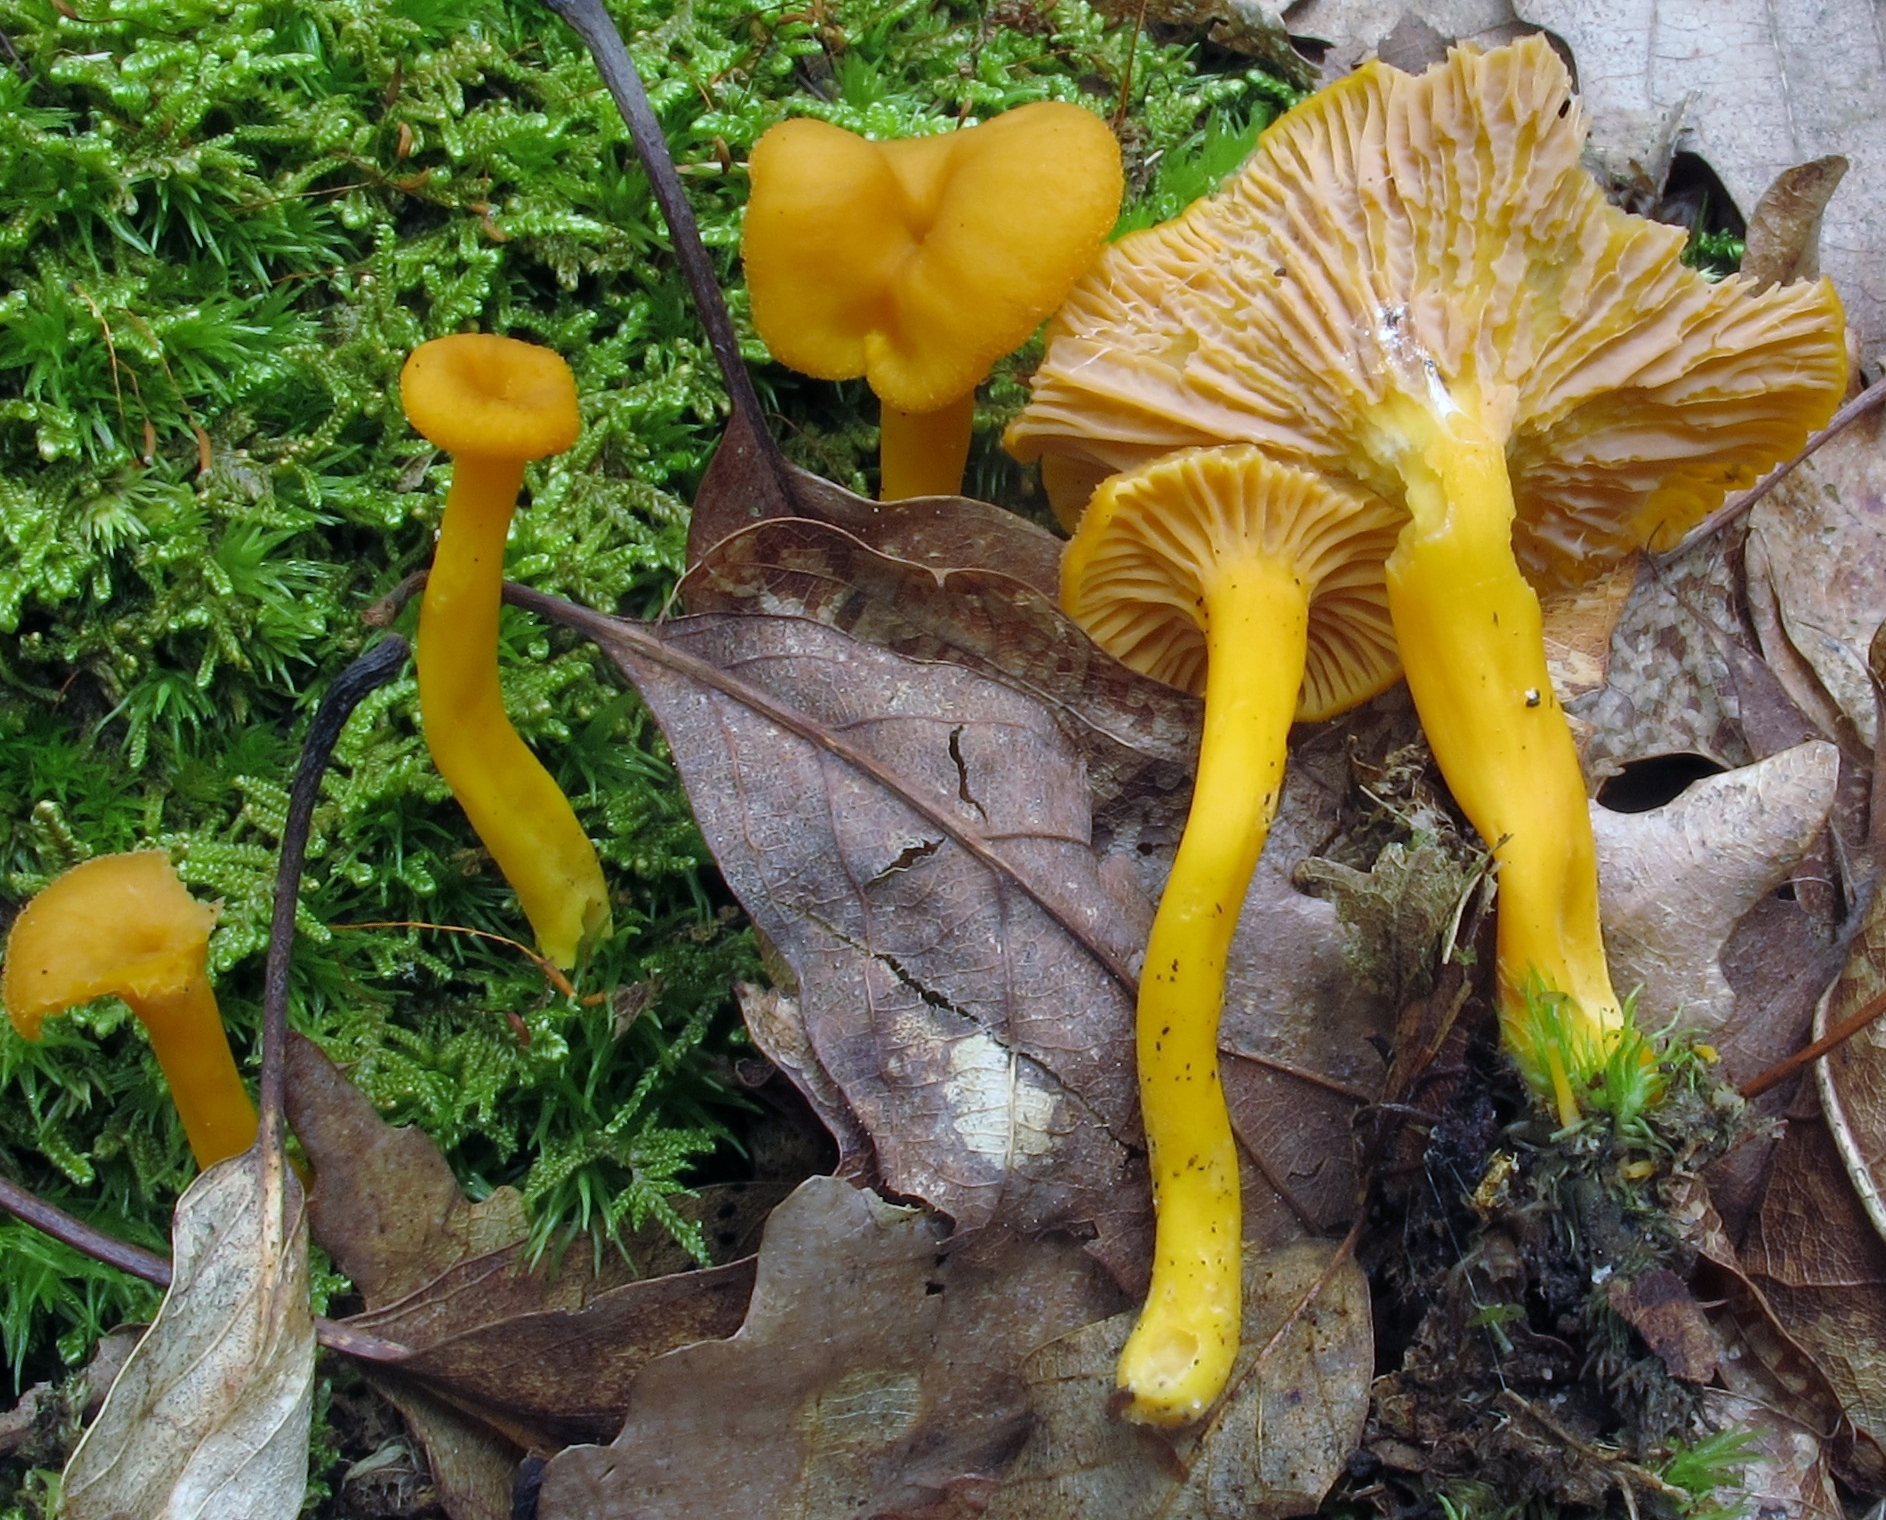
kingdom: Fungi
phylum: Basidiomycota
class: Agaricomycetes
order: Cantharellales
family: Hydnaceae
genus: Craterellus
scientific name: Craterellus ignicolor
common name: Flame chanterelle
